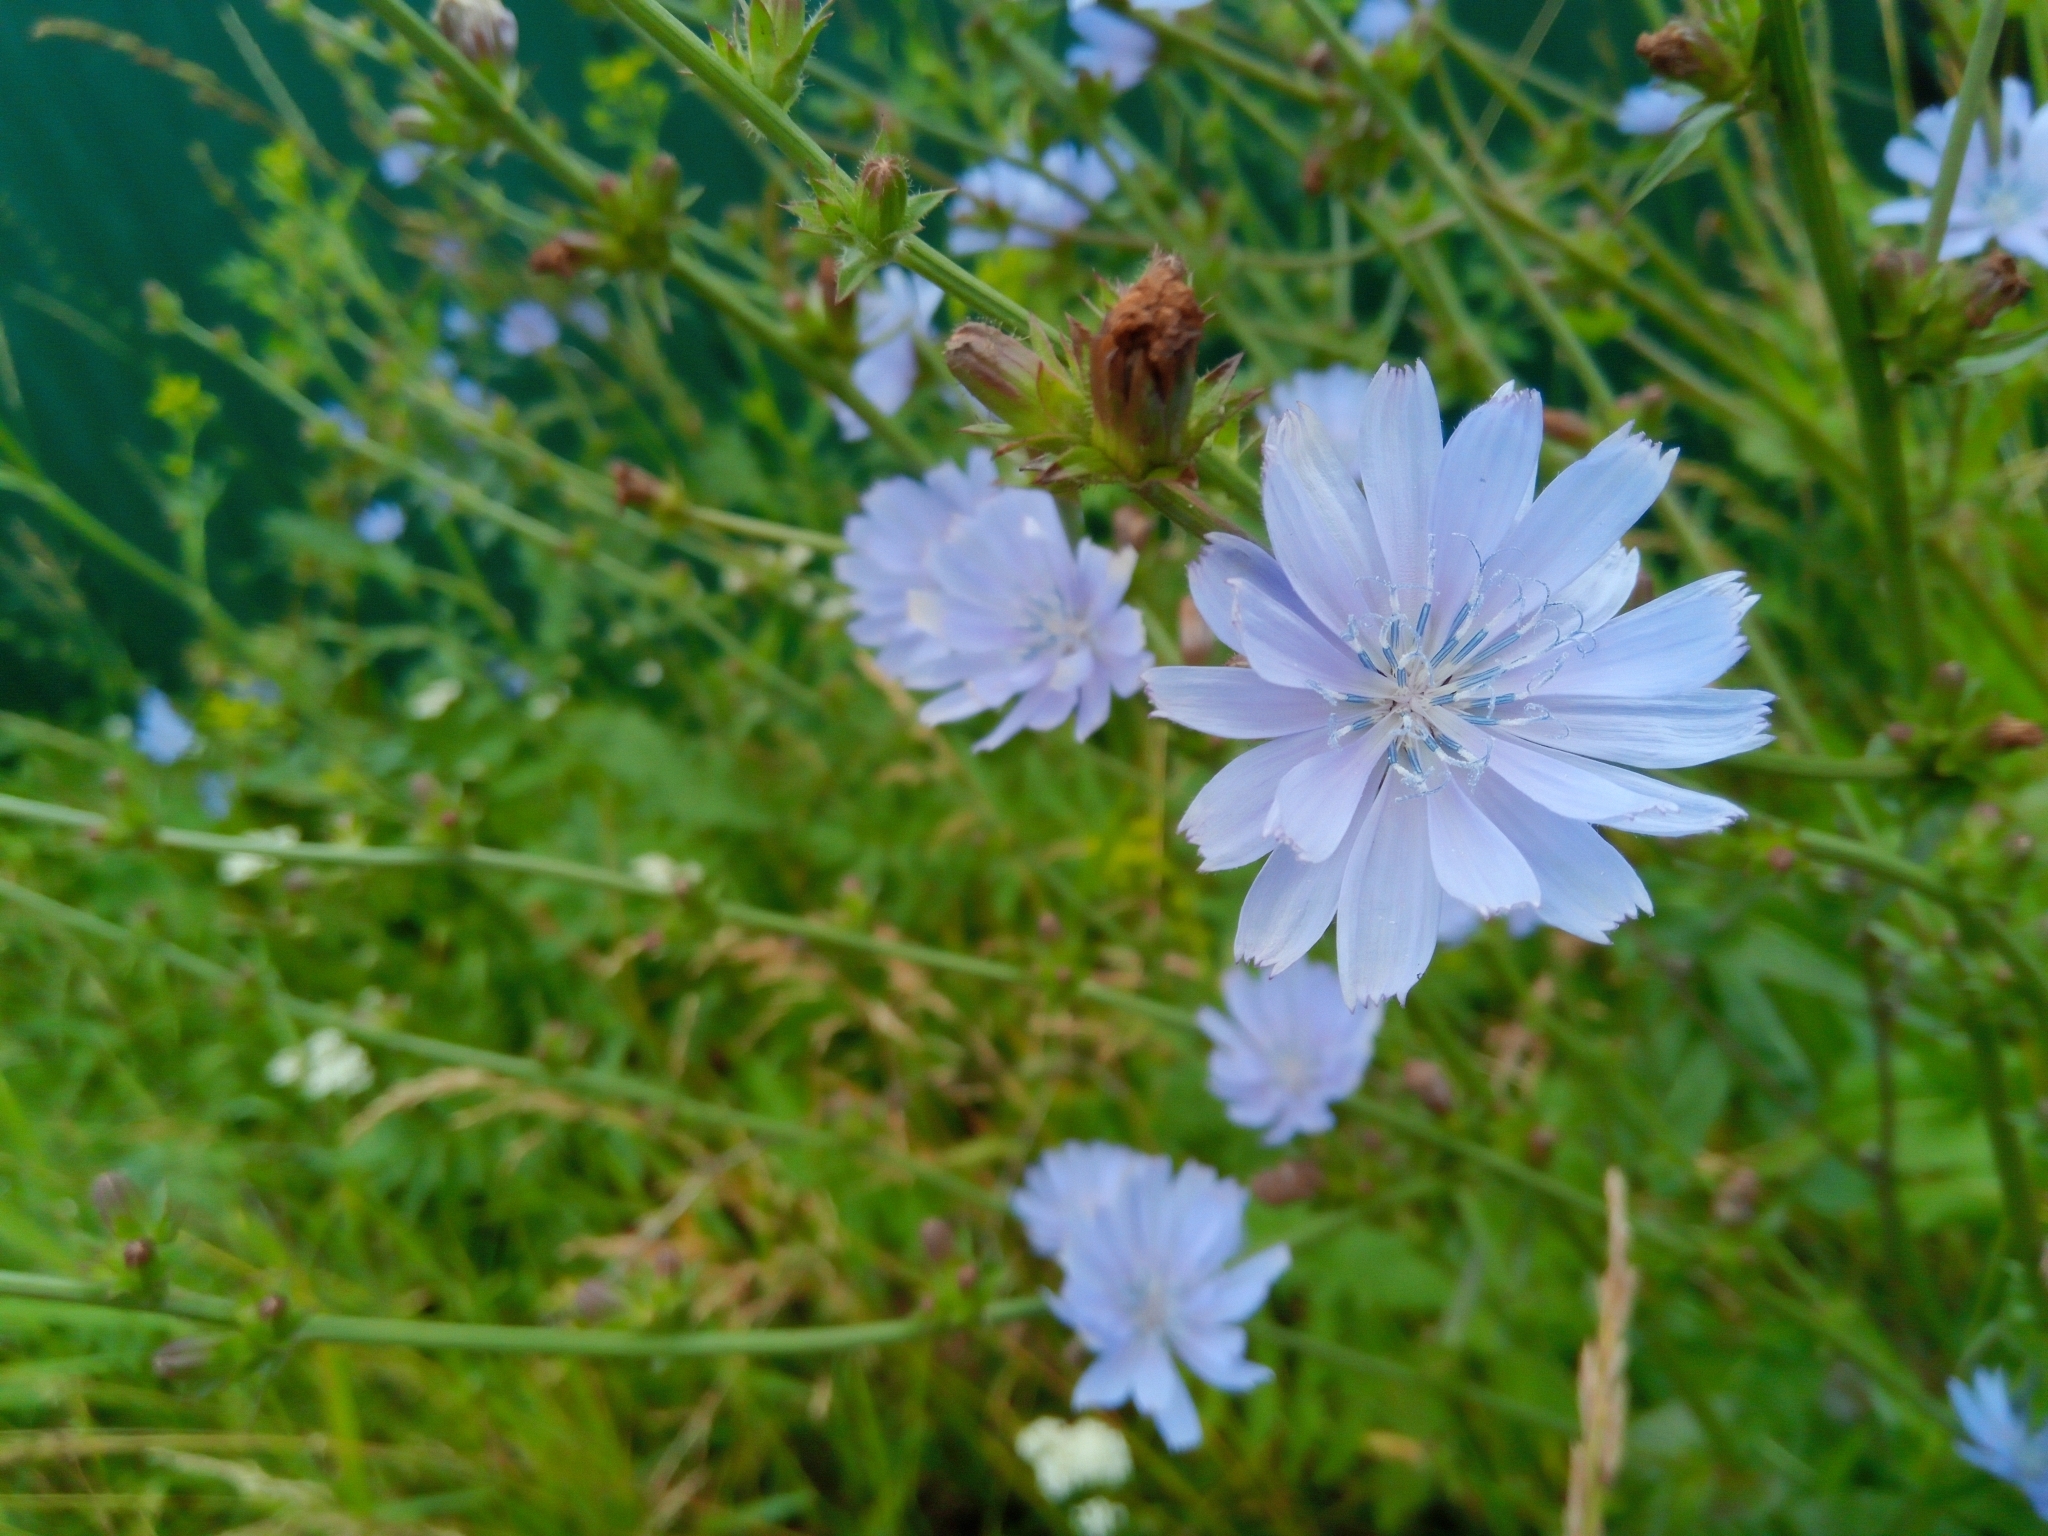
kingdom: Plantae
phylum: Tracheophyta
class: Magnoliopsida
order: Asterales
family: Asteraceae
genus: Cichorium
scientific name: Cichorium intybus
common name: Chicory
